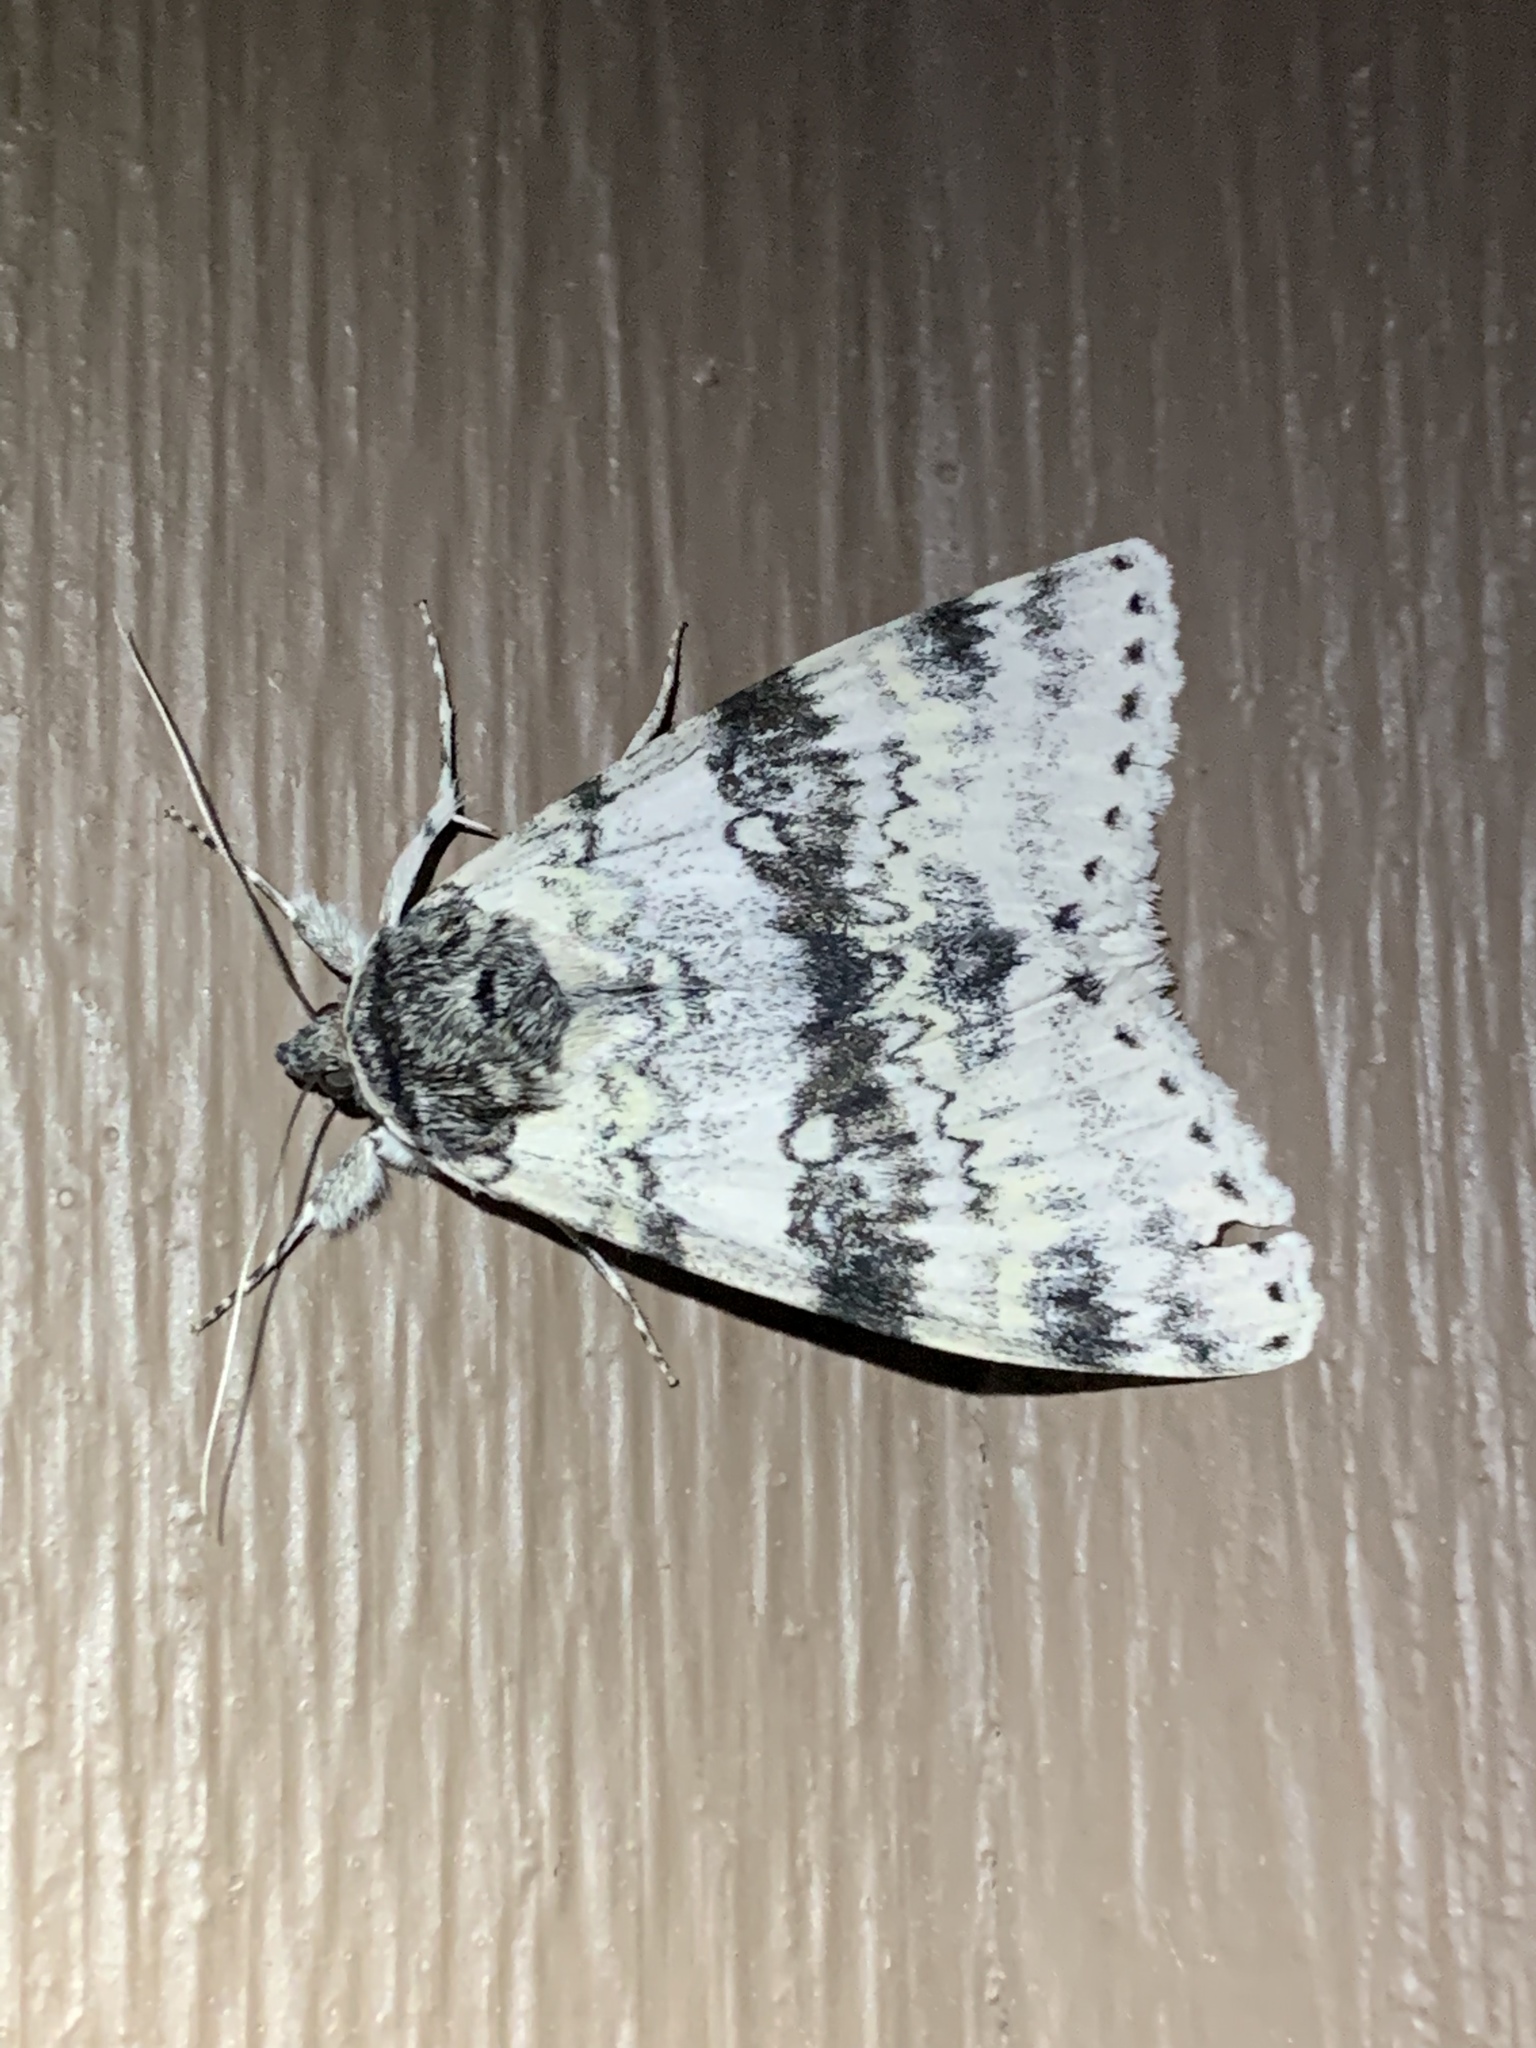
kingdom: Animalia
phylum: Arthropoda
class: Insecta
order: Lepidoptera
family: Erebidae
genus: Catocala
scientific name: Catocala relicta
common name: White underwing
